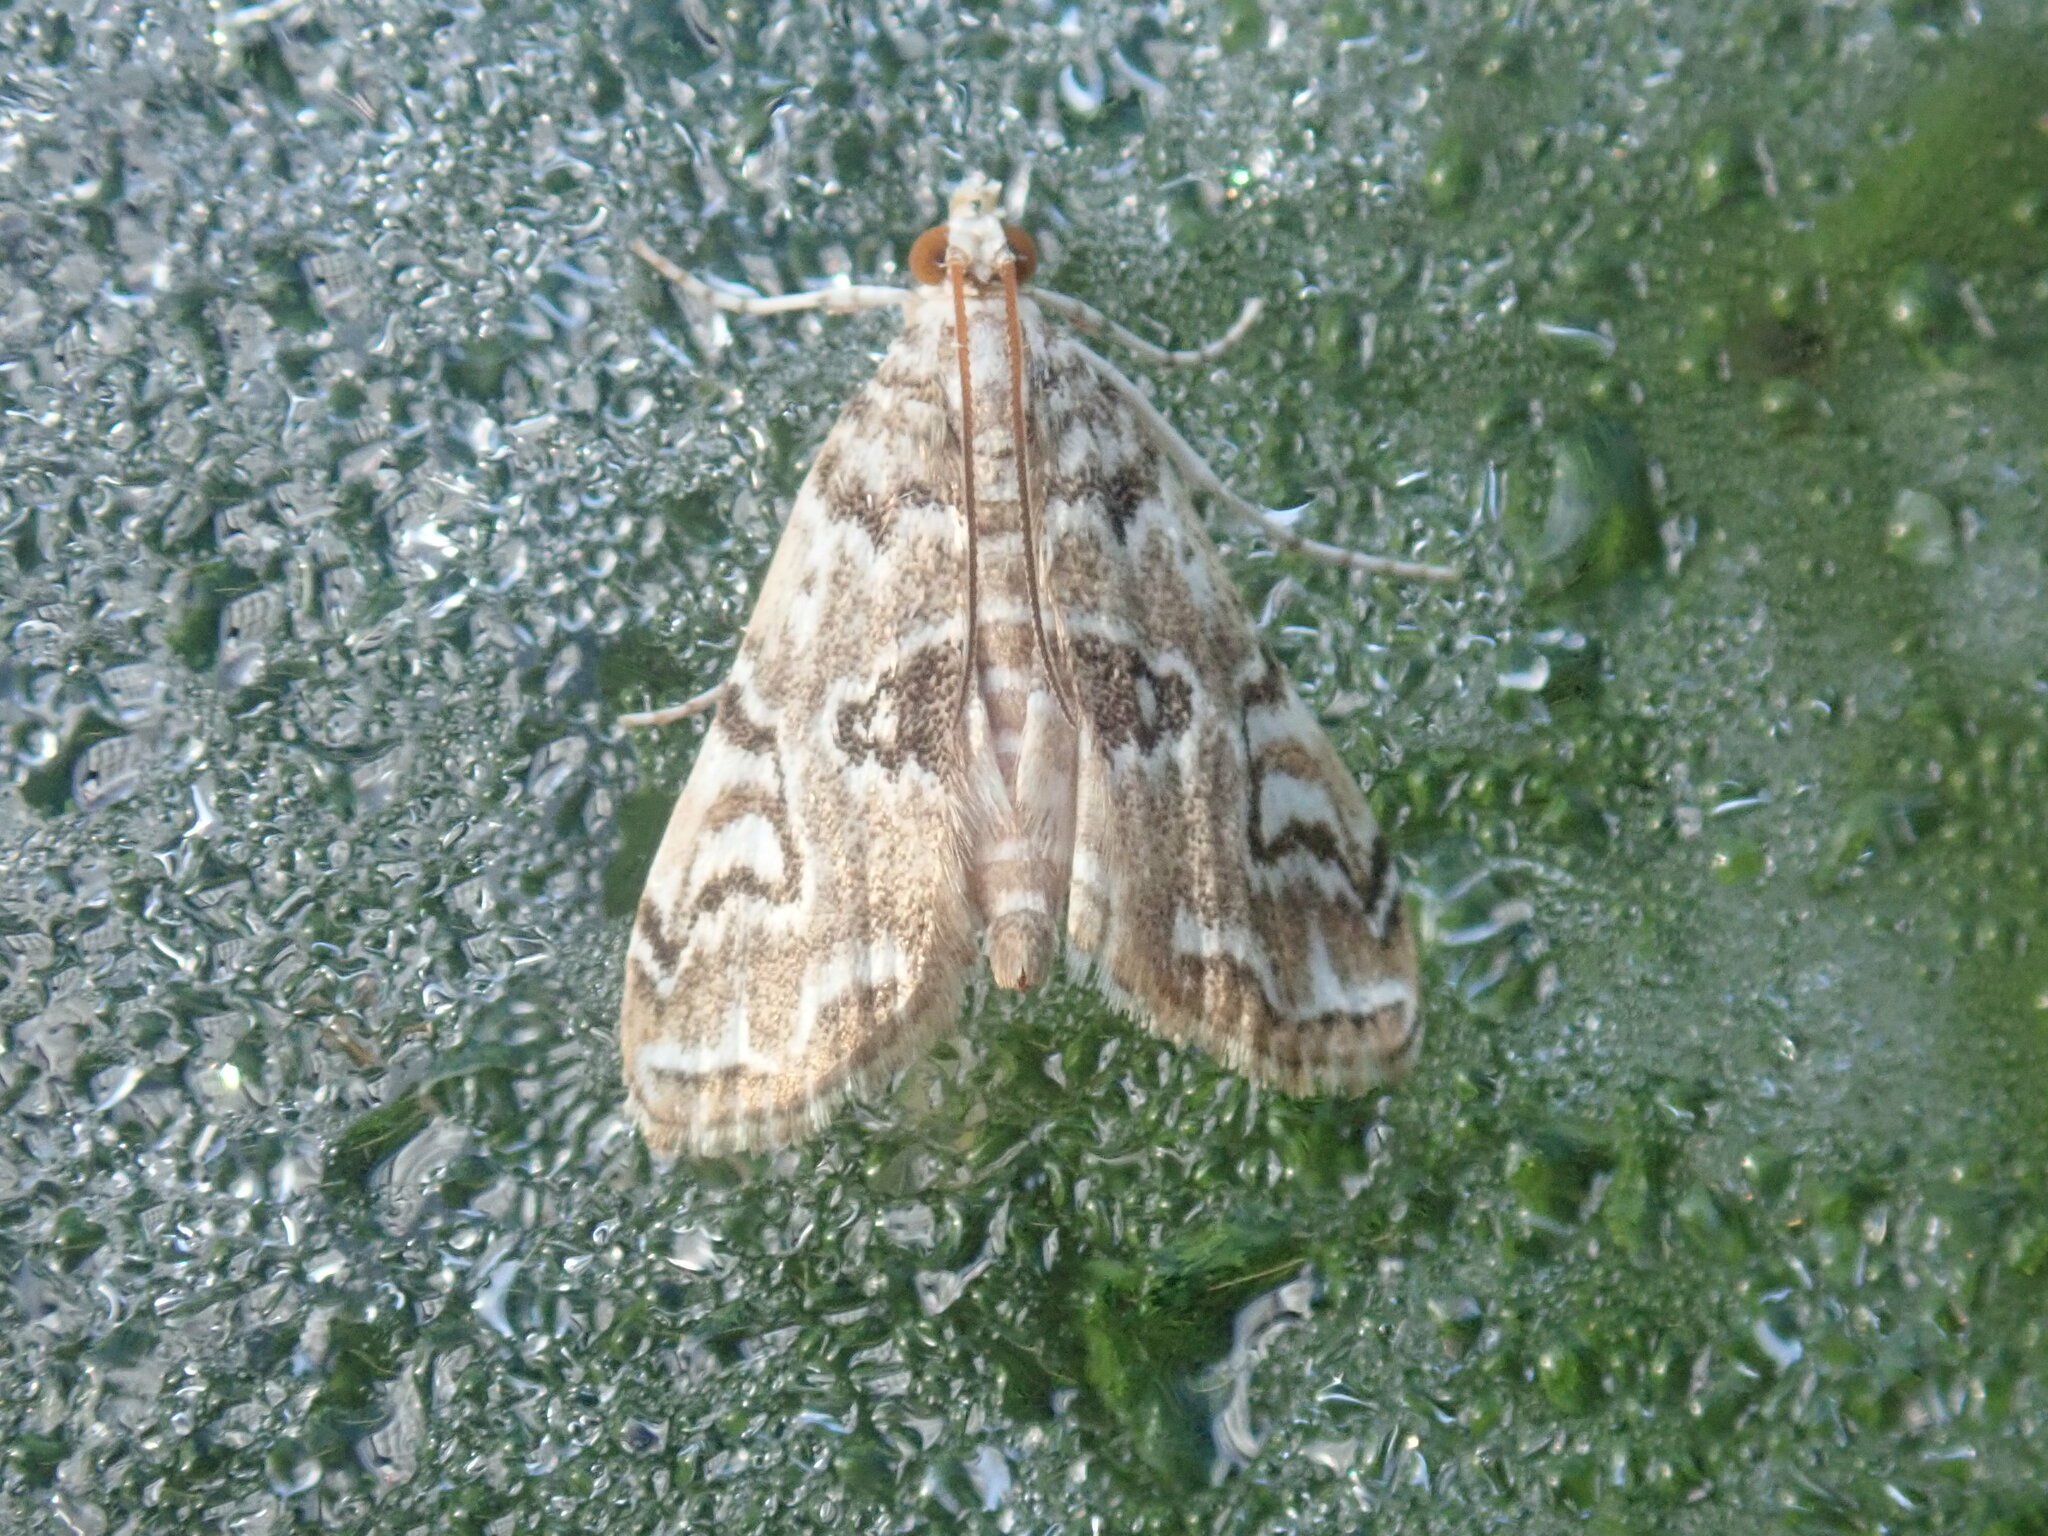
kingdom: Animalia
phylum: Arthropoda
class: Insecta
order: Lepidoptera
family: Crambidae
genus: Elophila
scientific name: Elophila gyralis
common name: Waterlily borer moth
